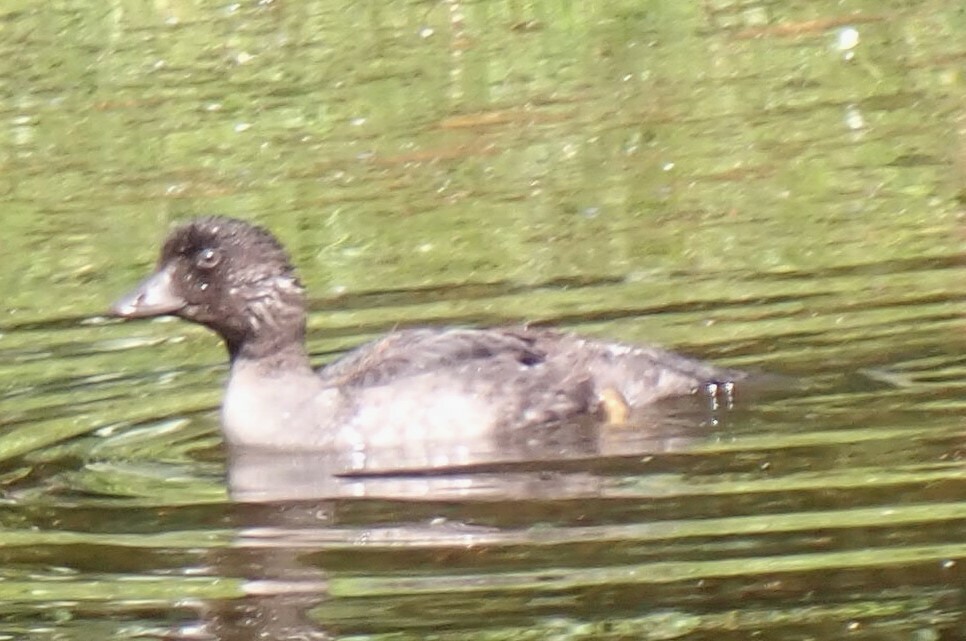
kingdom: Animalia
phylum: Chordata
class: Aves
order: Anseriformes
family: Anatidae
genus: Bucephala
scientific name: Bucephala islandica
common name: Barrow's goldeneye
